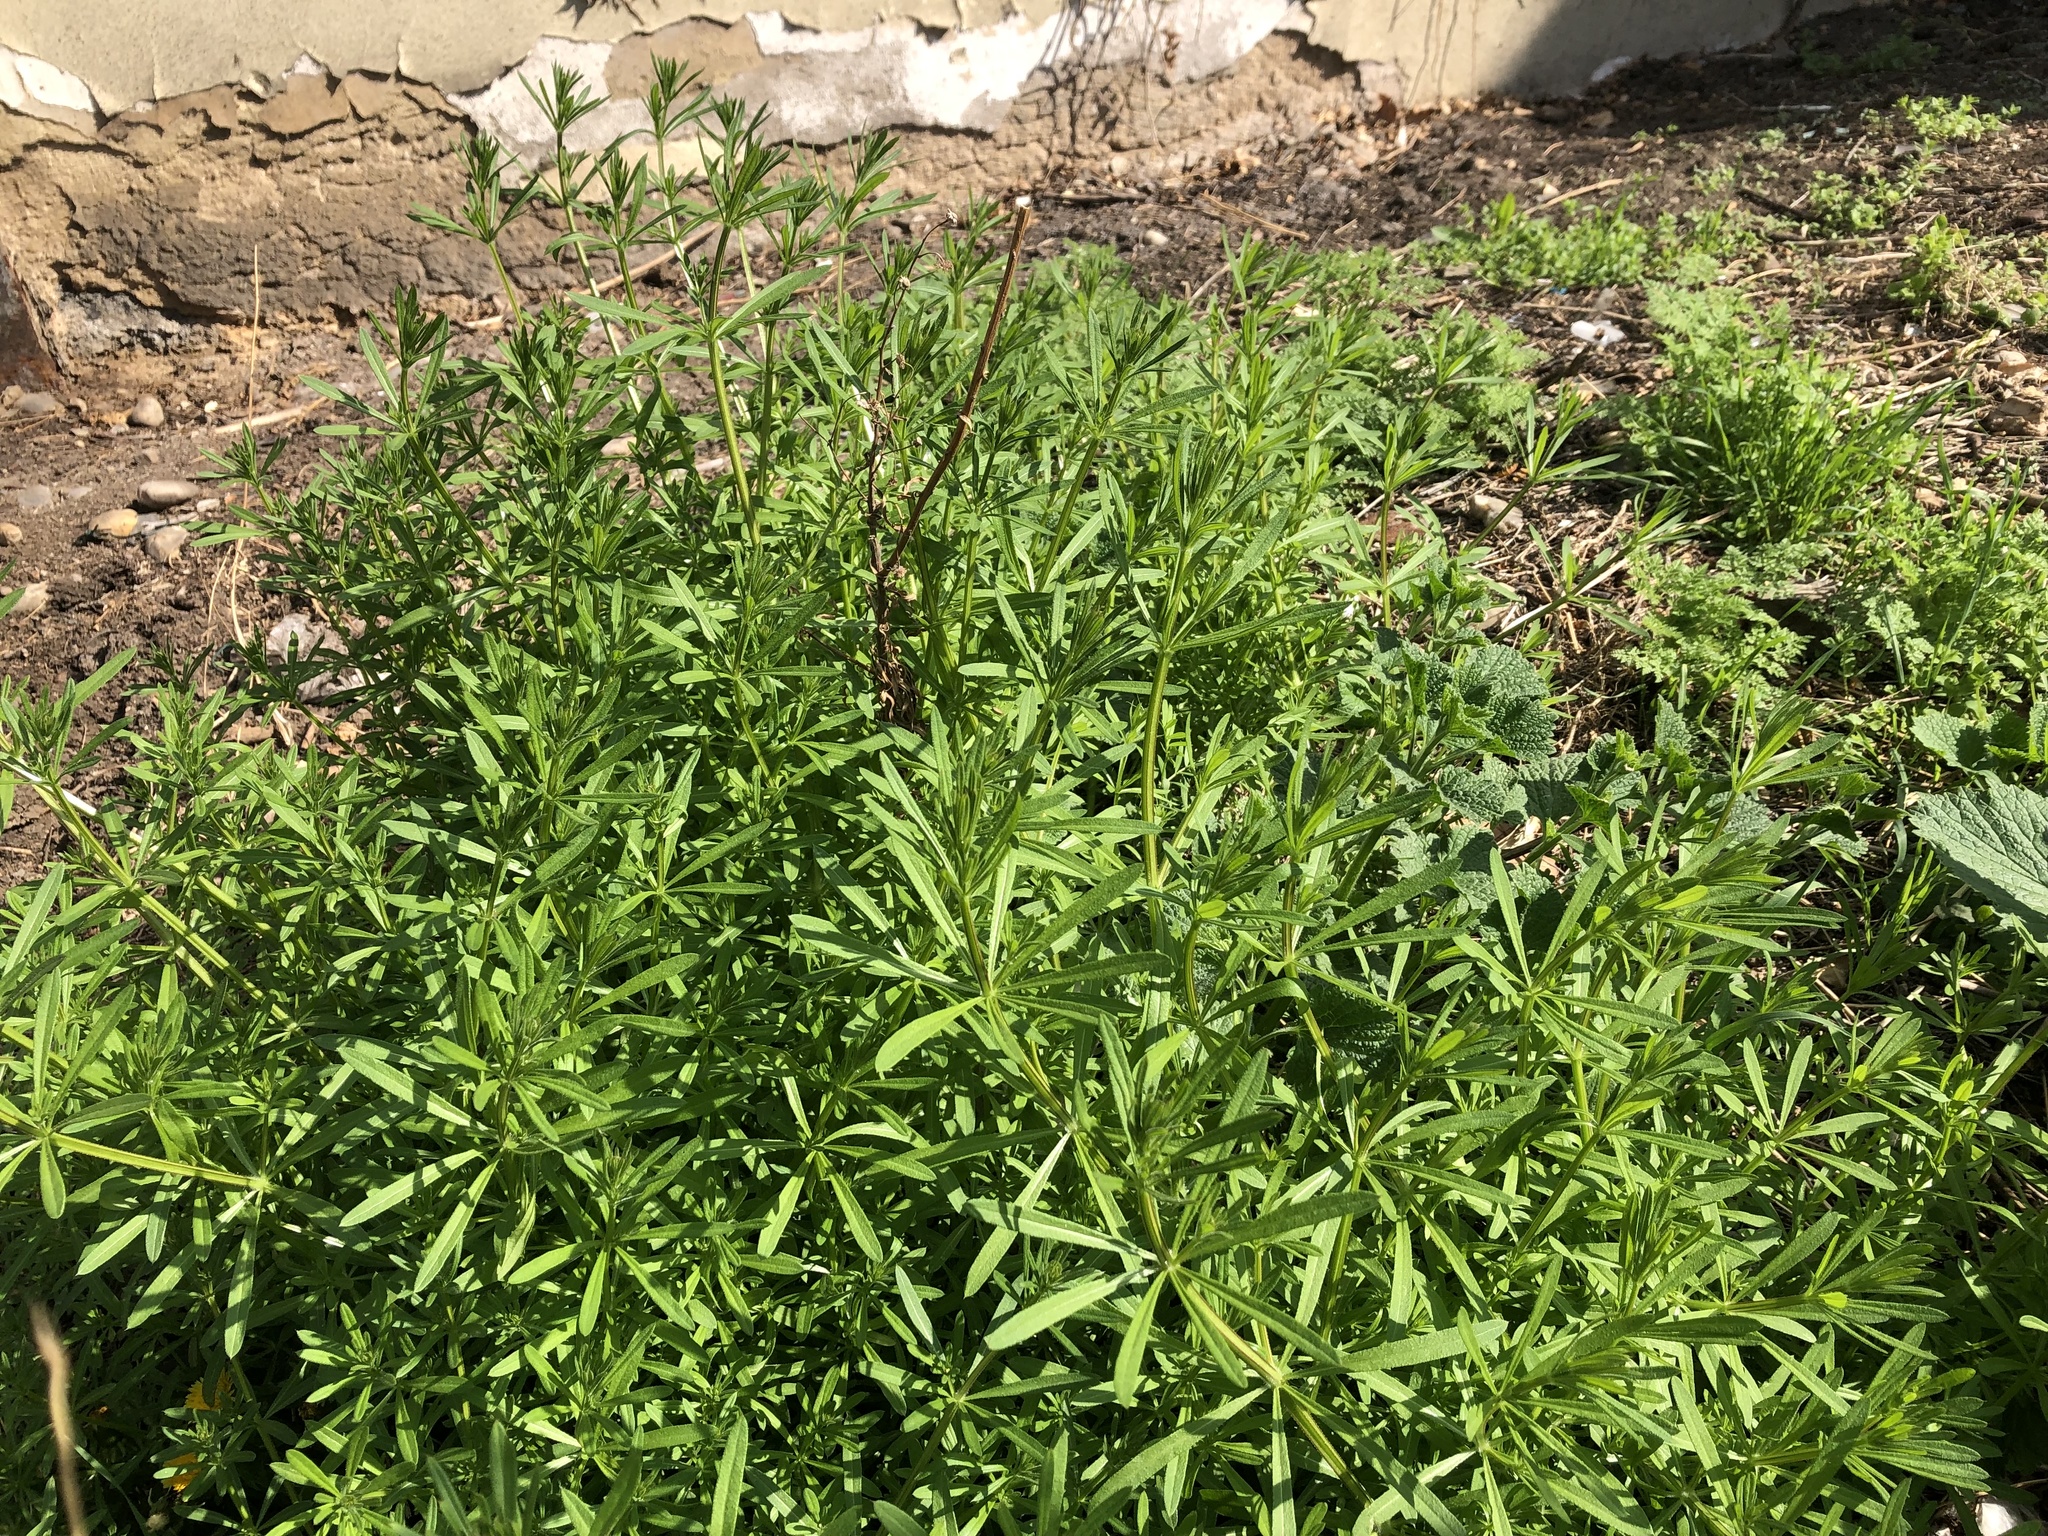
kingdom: Plantae
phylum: Tracheophyta
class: Magnoliopsida
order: Gentianales
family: Rubiaceae
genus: Galium
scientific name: Galium aparine
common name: Cleavers
